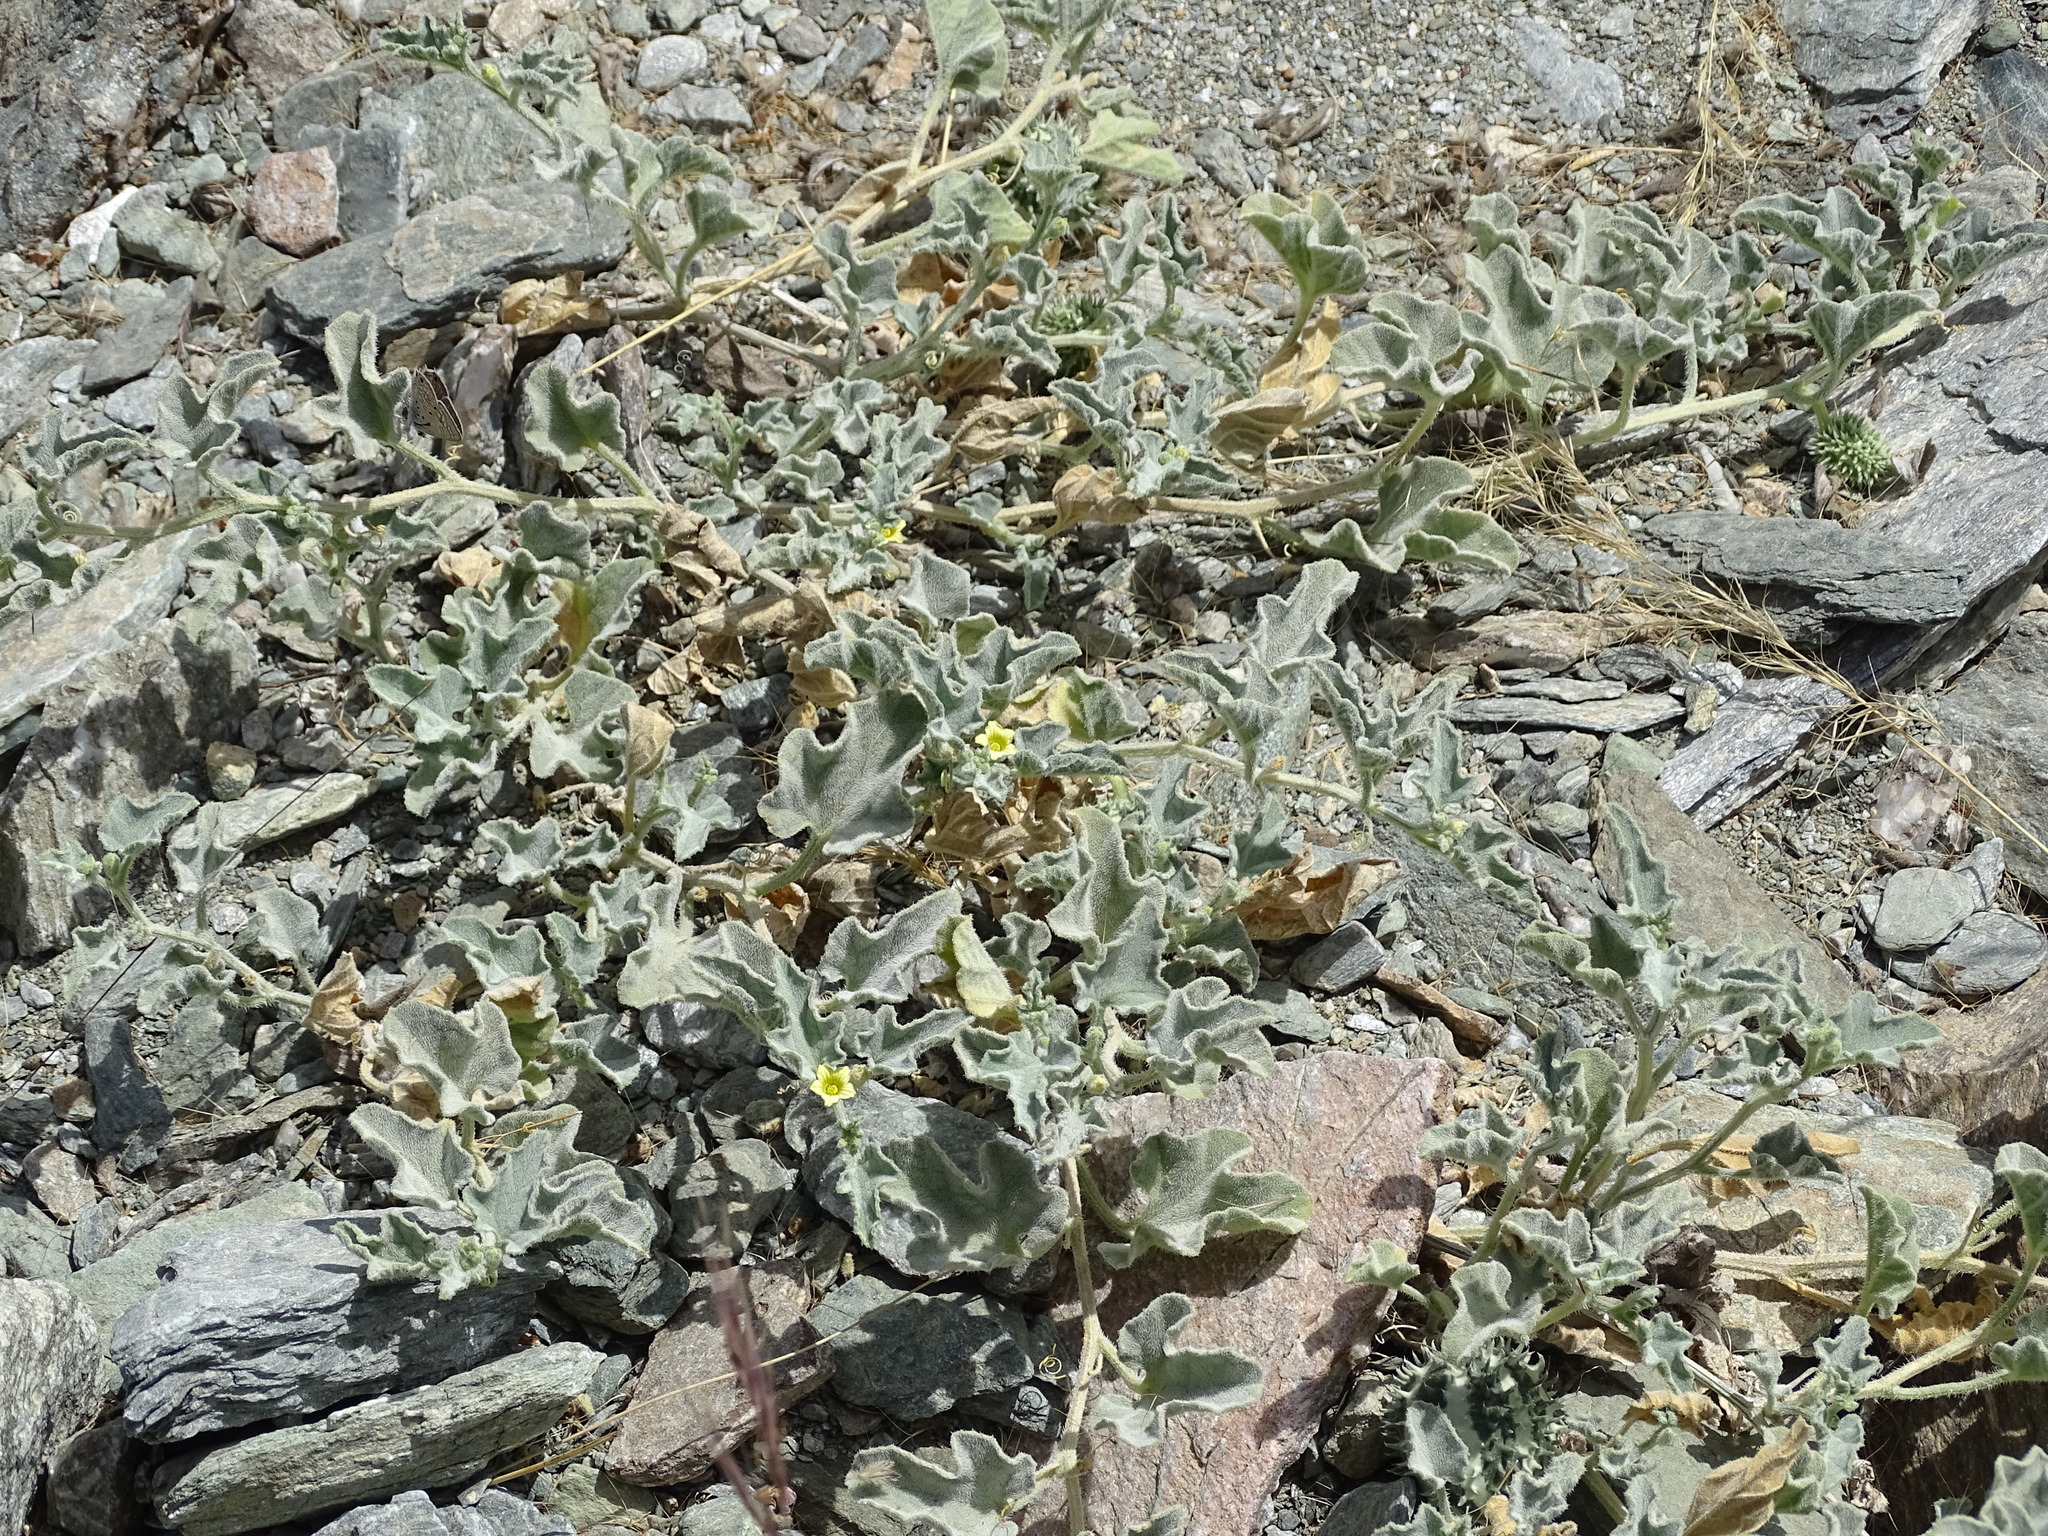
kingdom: Plantae
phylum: Tracheophyta
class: Magnoliopsida
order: Cucurbitales
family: Cucurbitaceae
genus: Cucumis
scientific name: Cucumis prophetarum
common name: Wild cucumber
